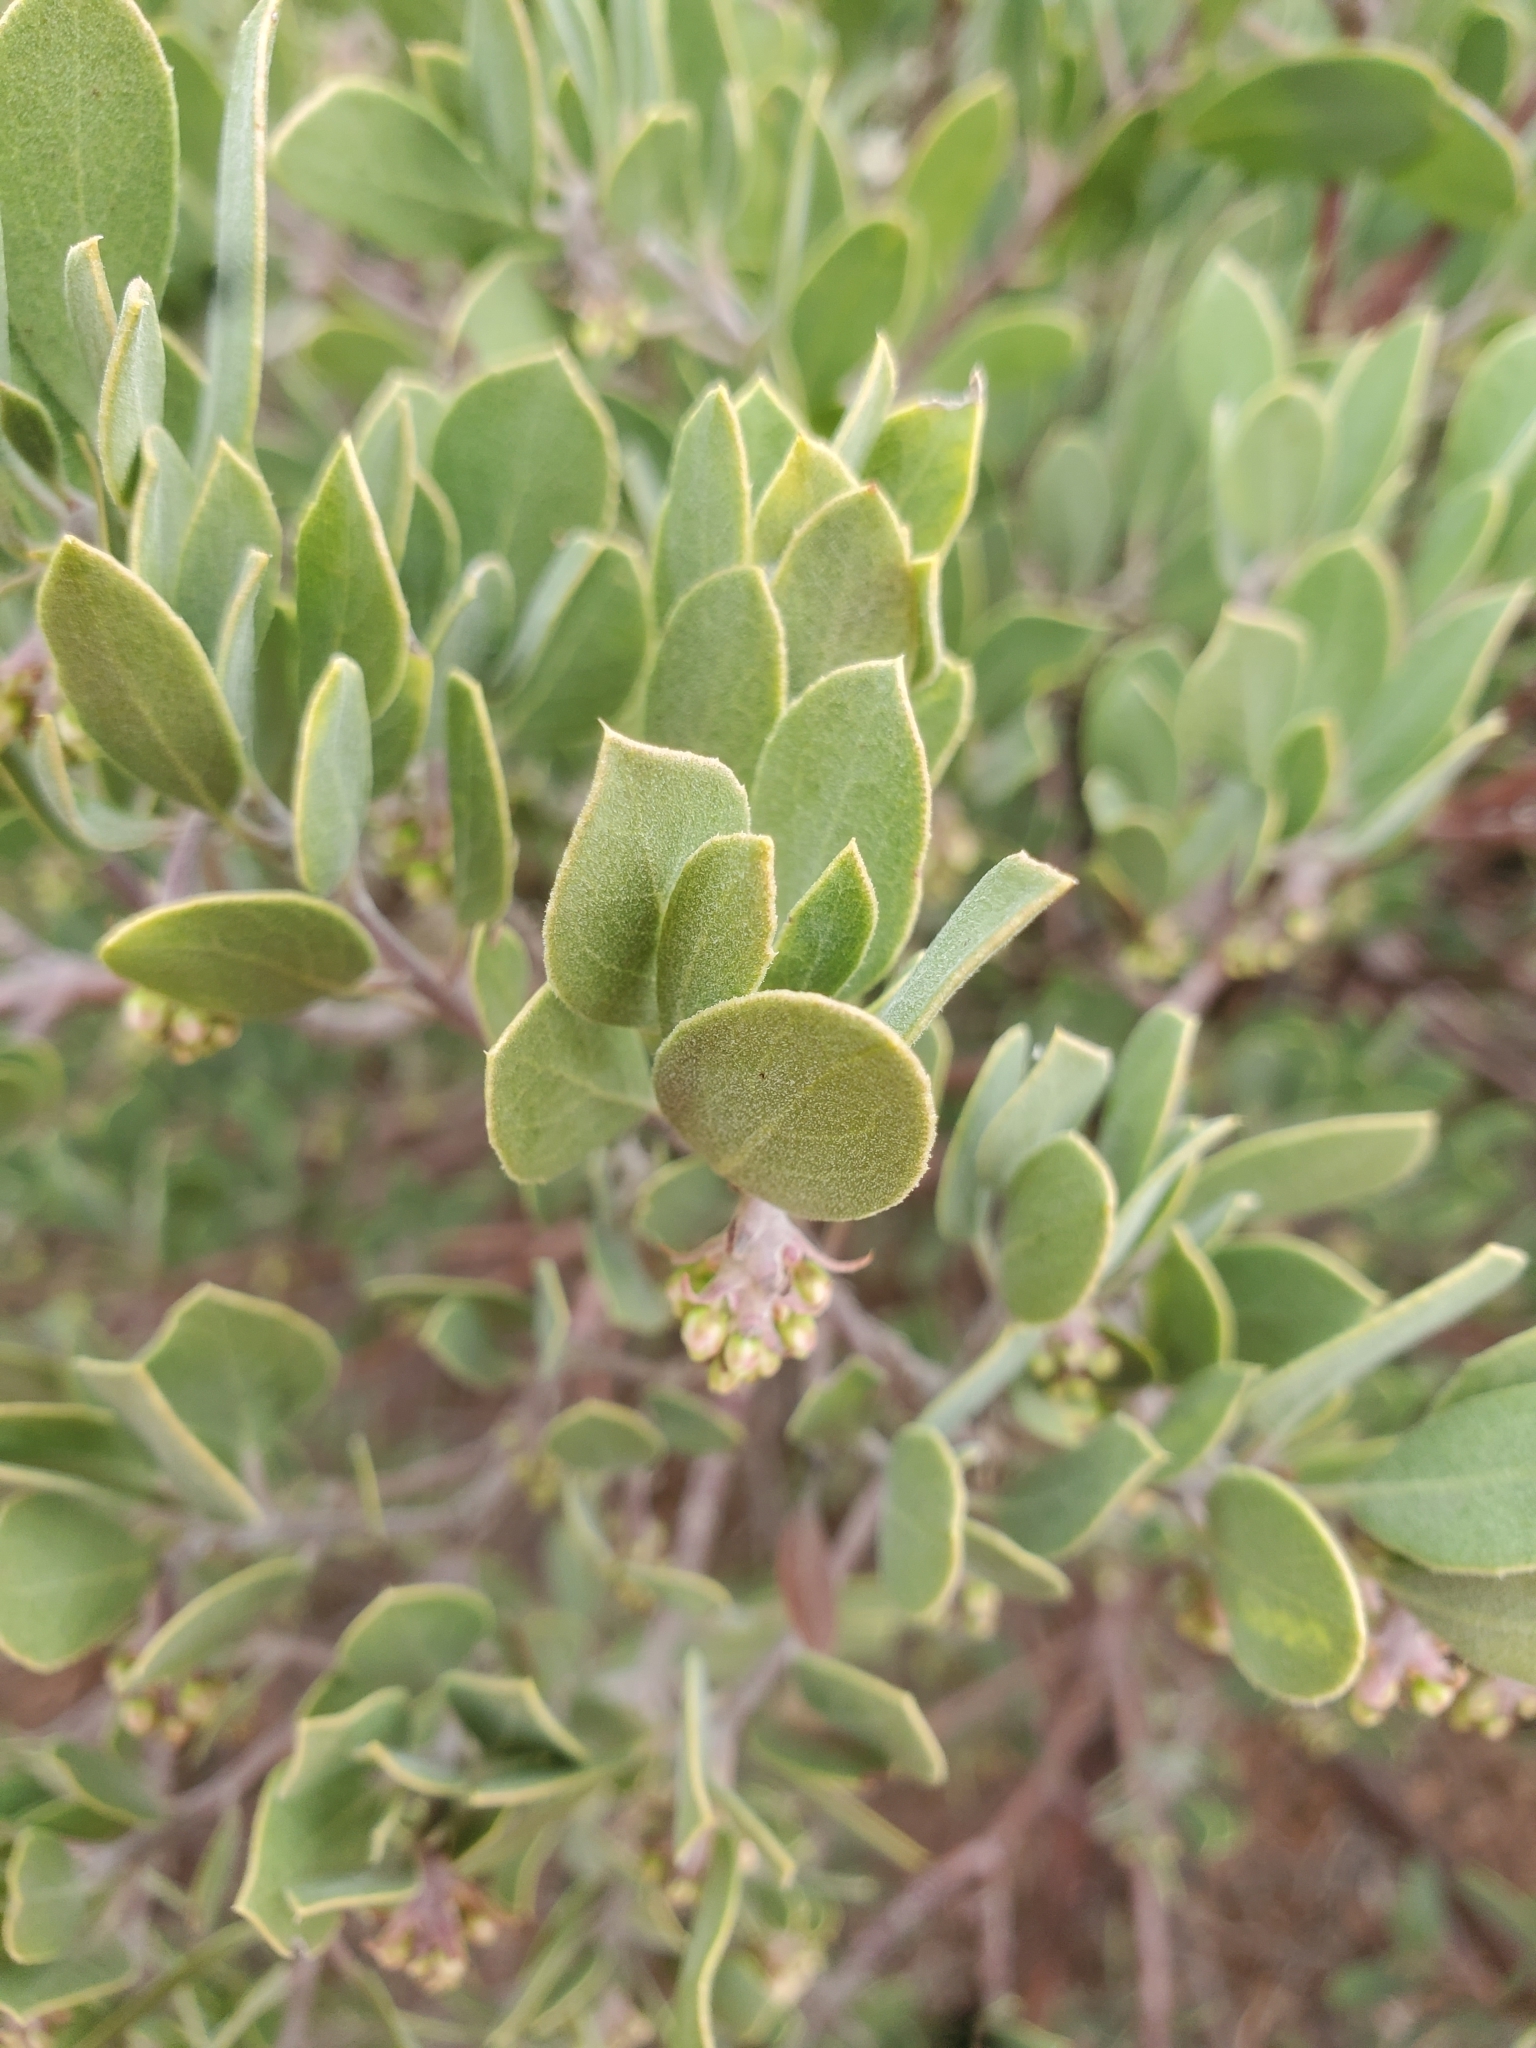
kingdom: Plantae
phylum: Tracheophyta
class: Magnoliopsida
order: Ericales
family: Ericaceae
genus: Arctostaphylos
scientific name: Arctostaphylos pungens
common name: Mexican manzanita
